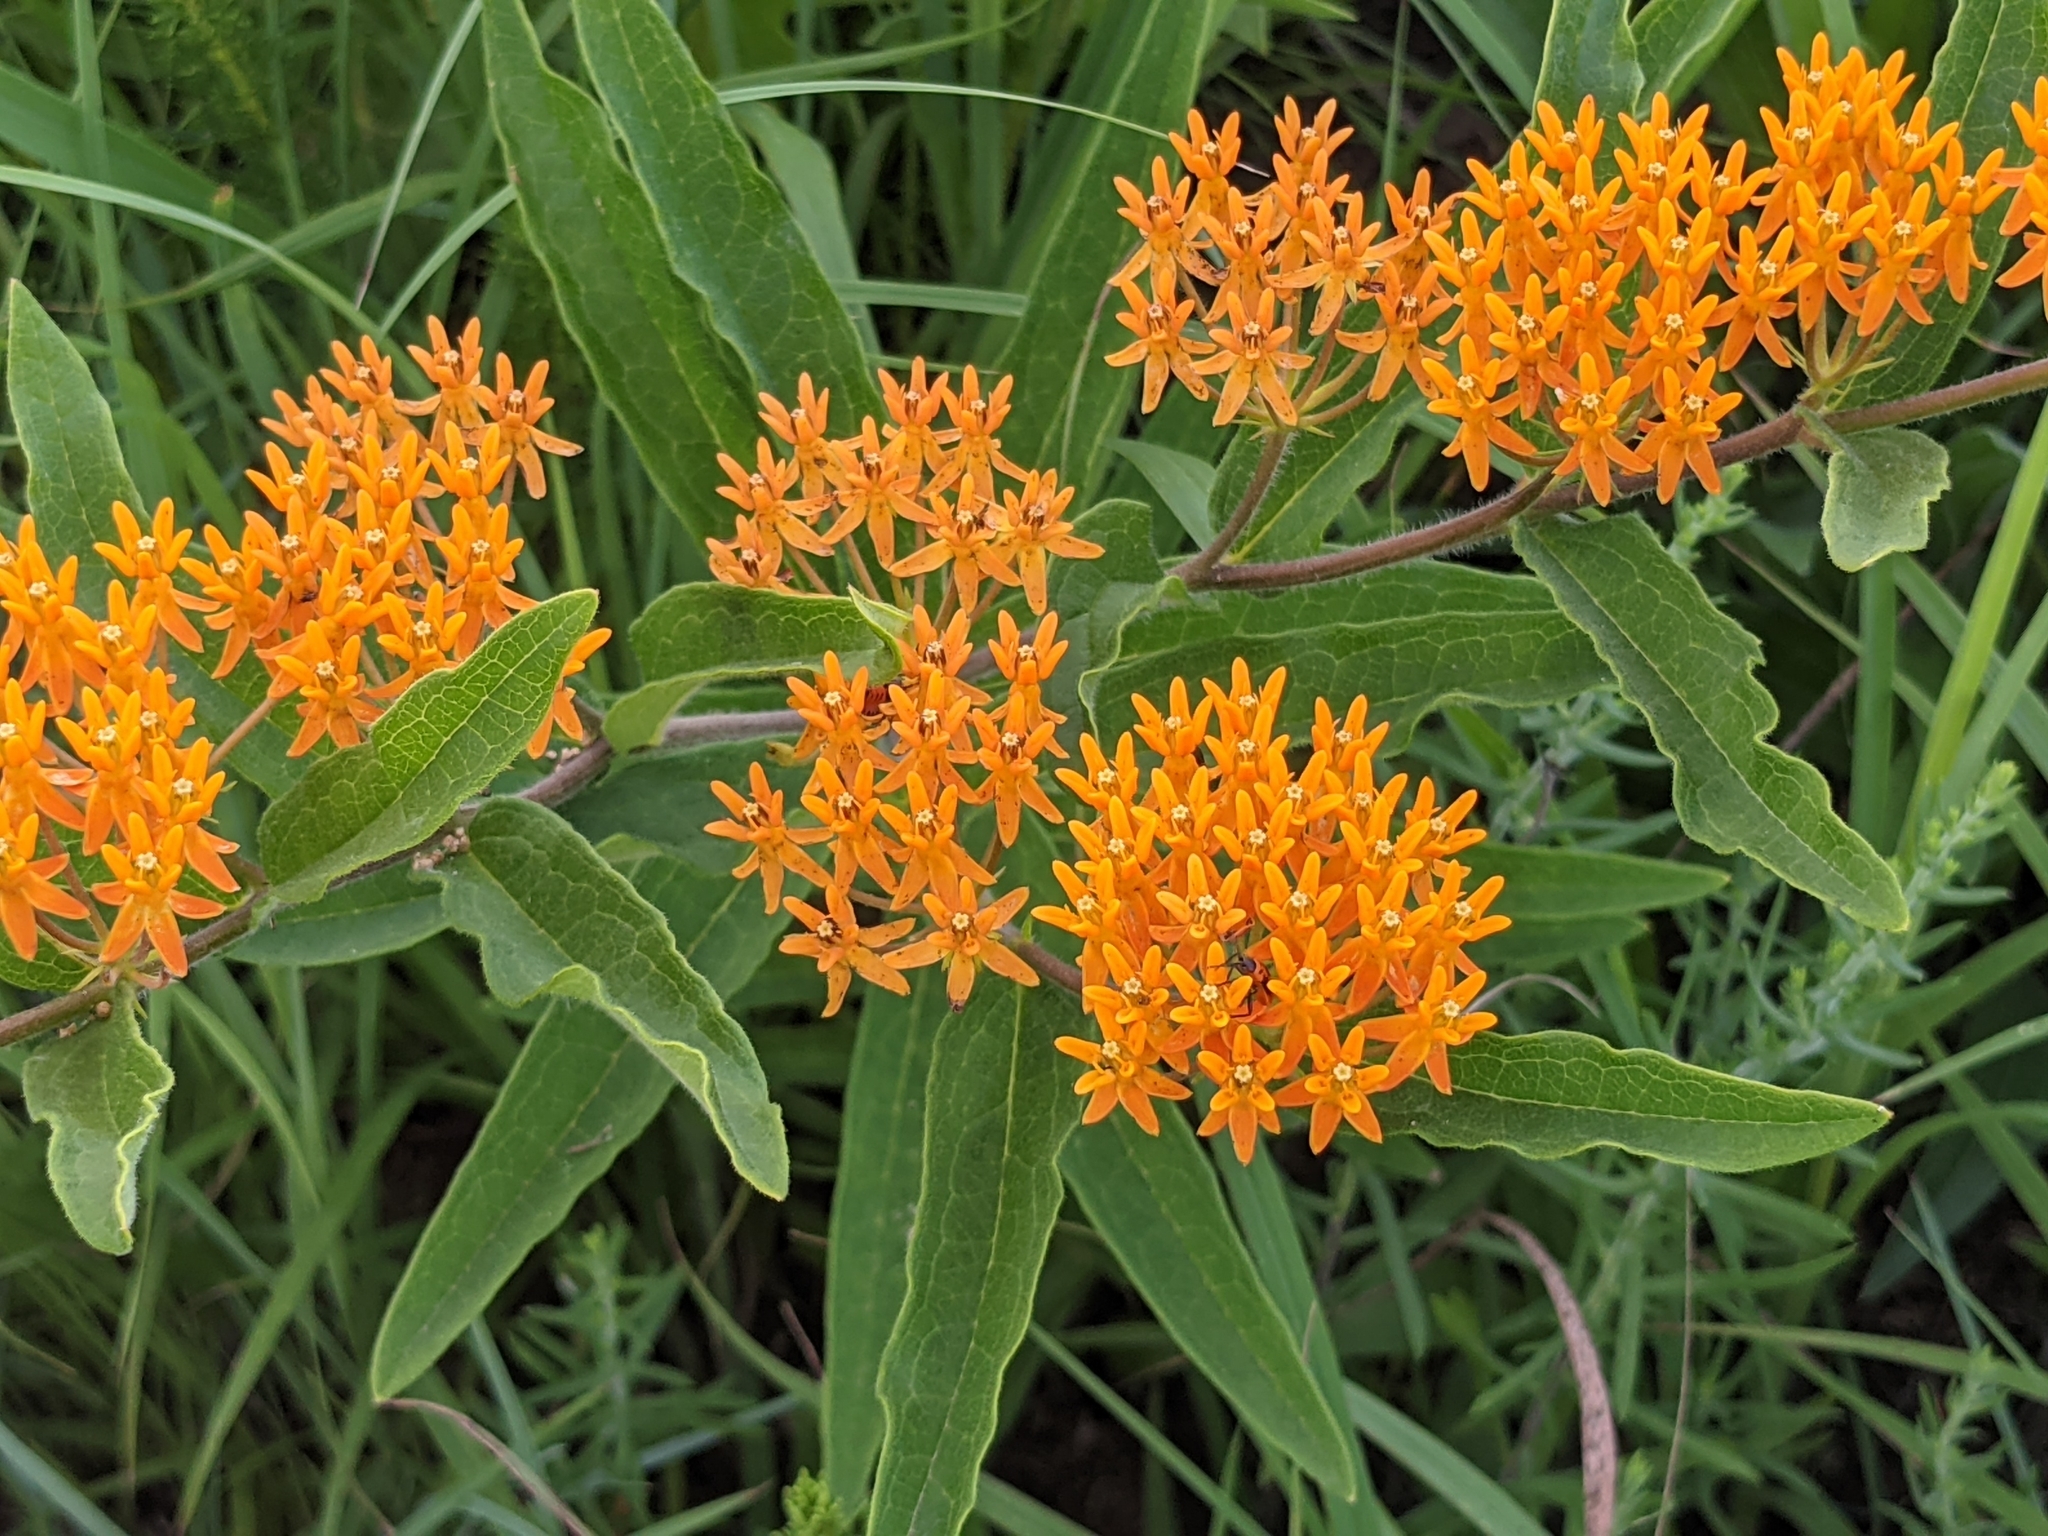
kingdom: Plantae
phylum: Tracheophyta
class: Magnoliopsida
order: Gentianales
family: Apocynaceae
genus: Asclepias
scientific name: Asclepias tuberosa
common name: Butterfly milkweed
